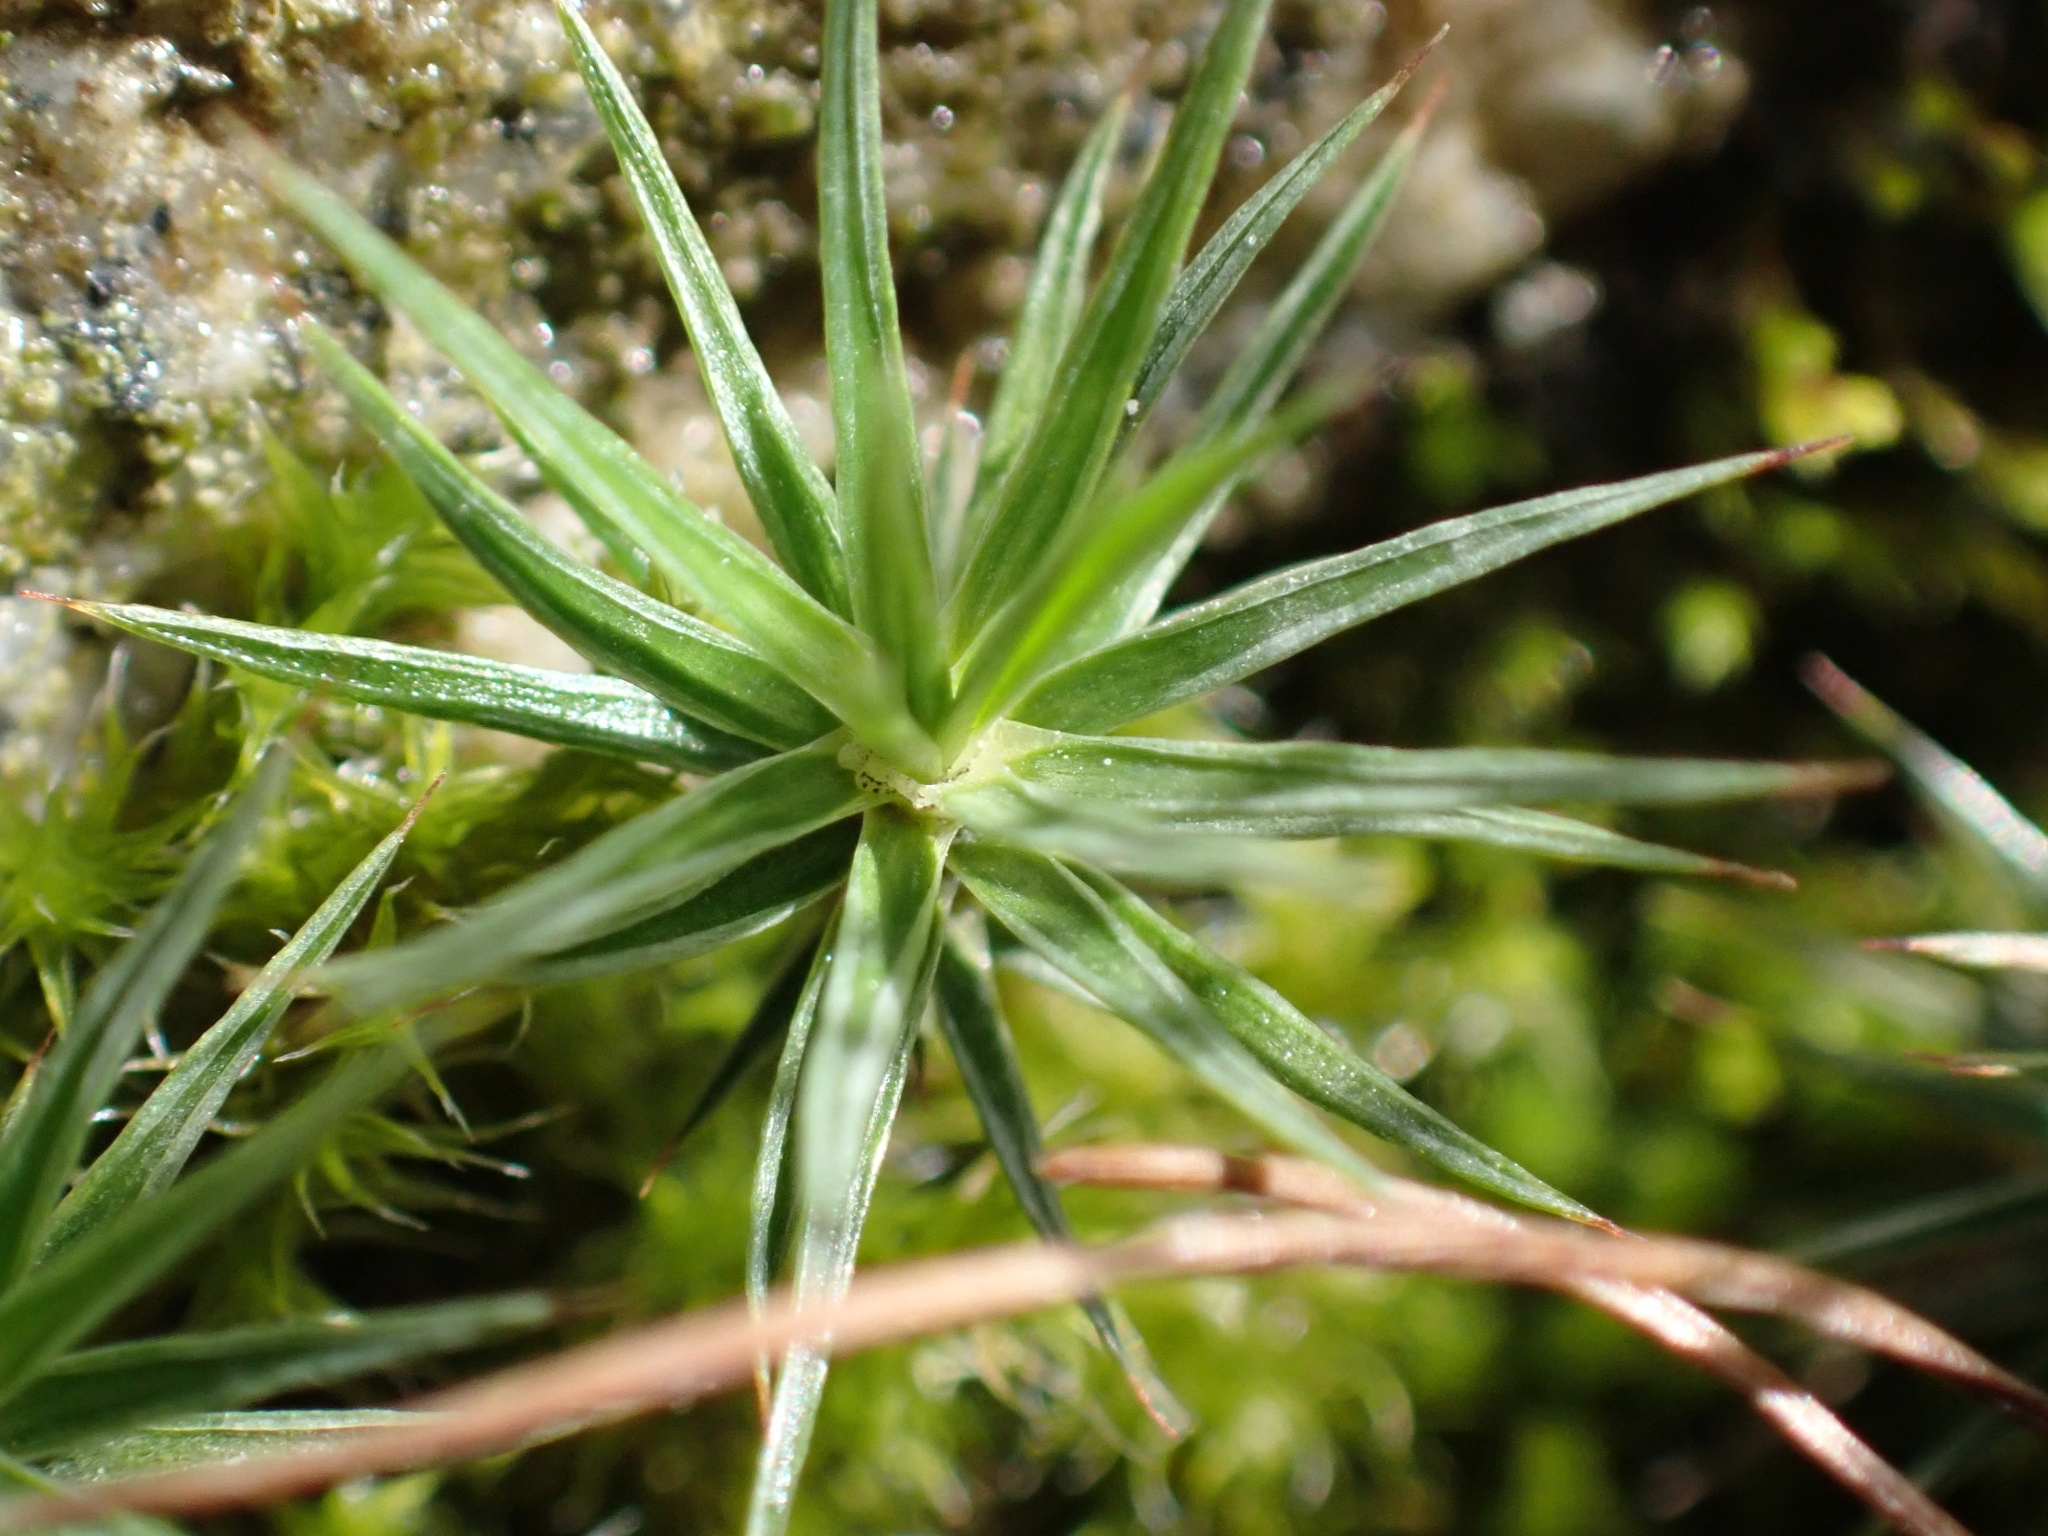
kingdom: Plantae
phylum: Bryophyta
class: Polytrichopsida
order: Polytrichales
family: Polytrichaceae
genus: Polytrichum
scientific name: Polytrichum juniperinum
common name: Juniper haircap moss
